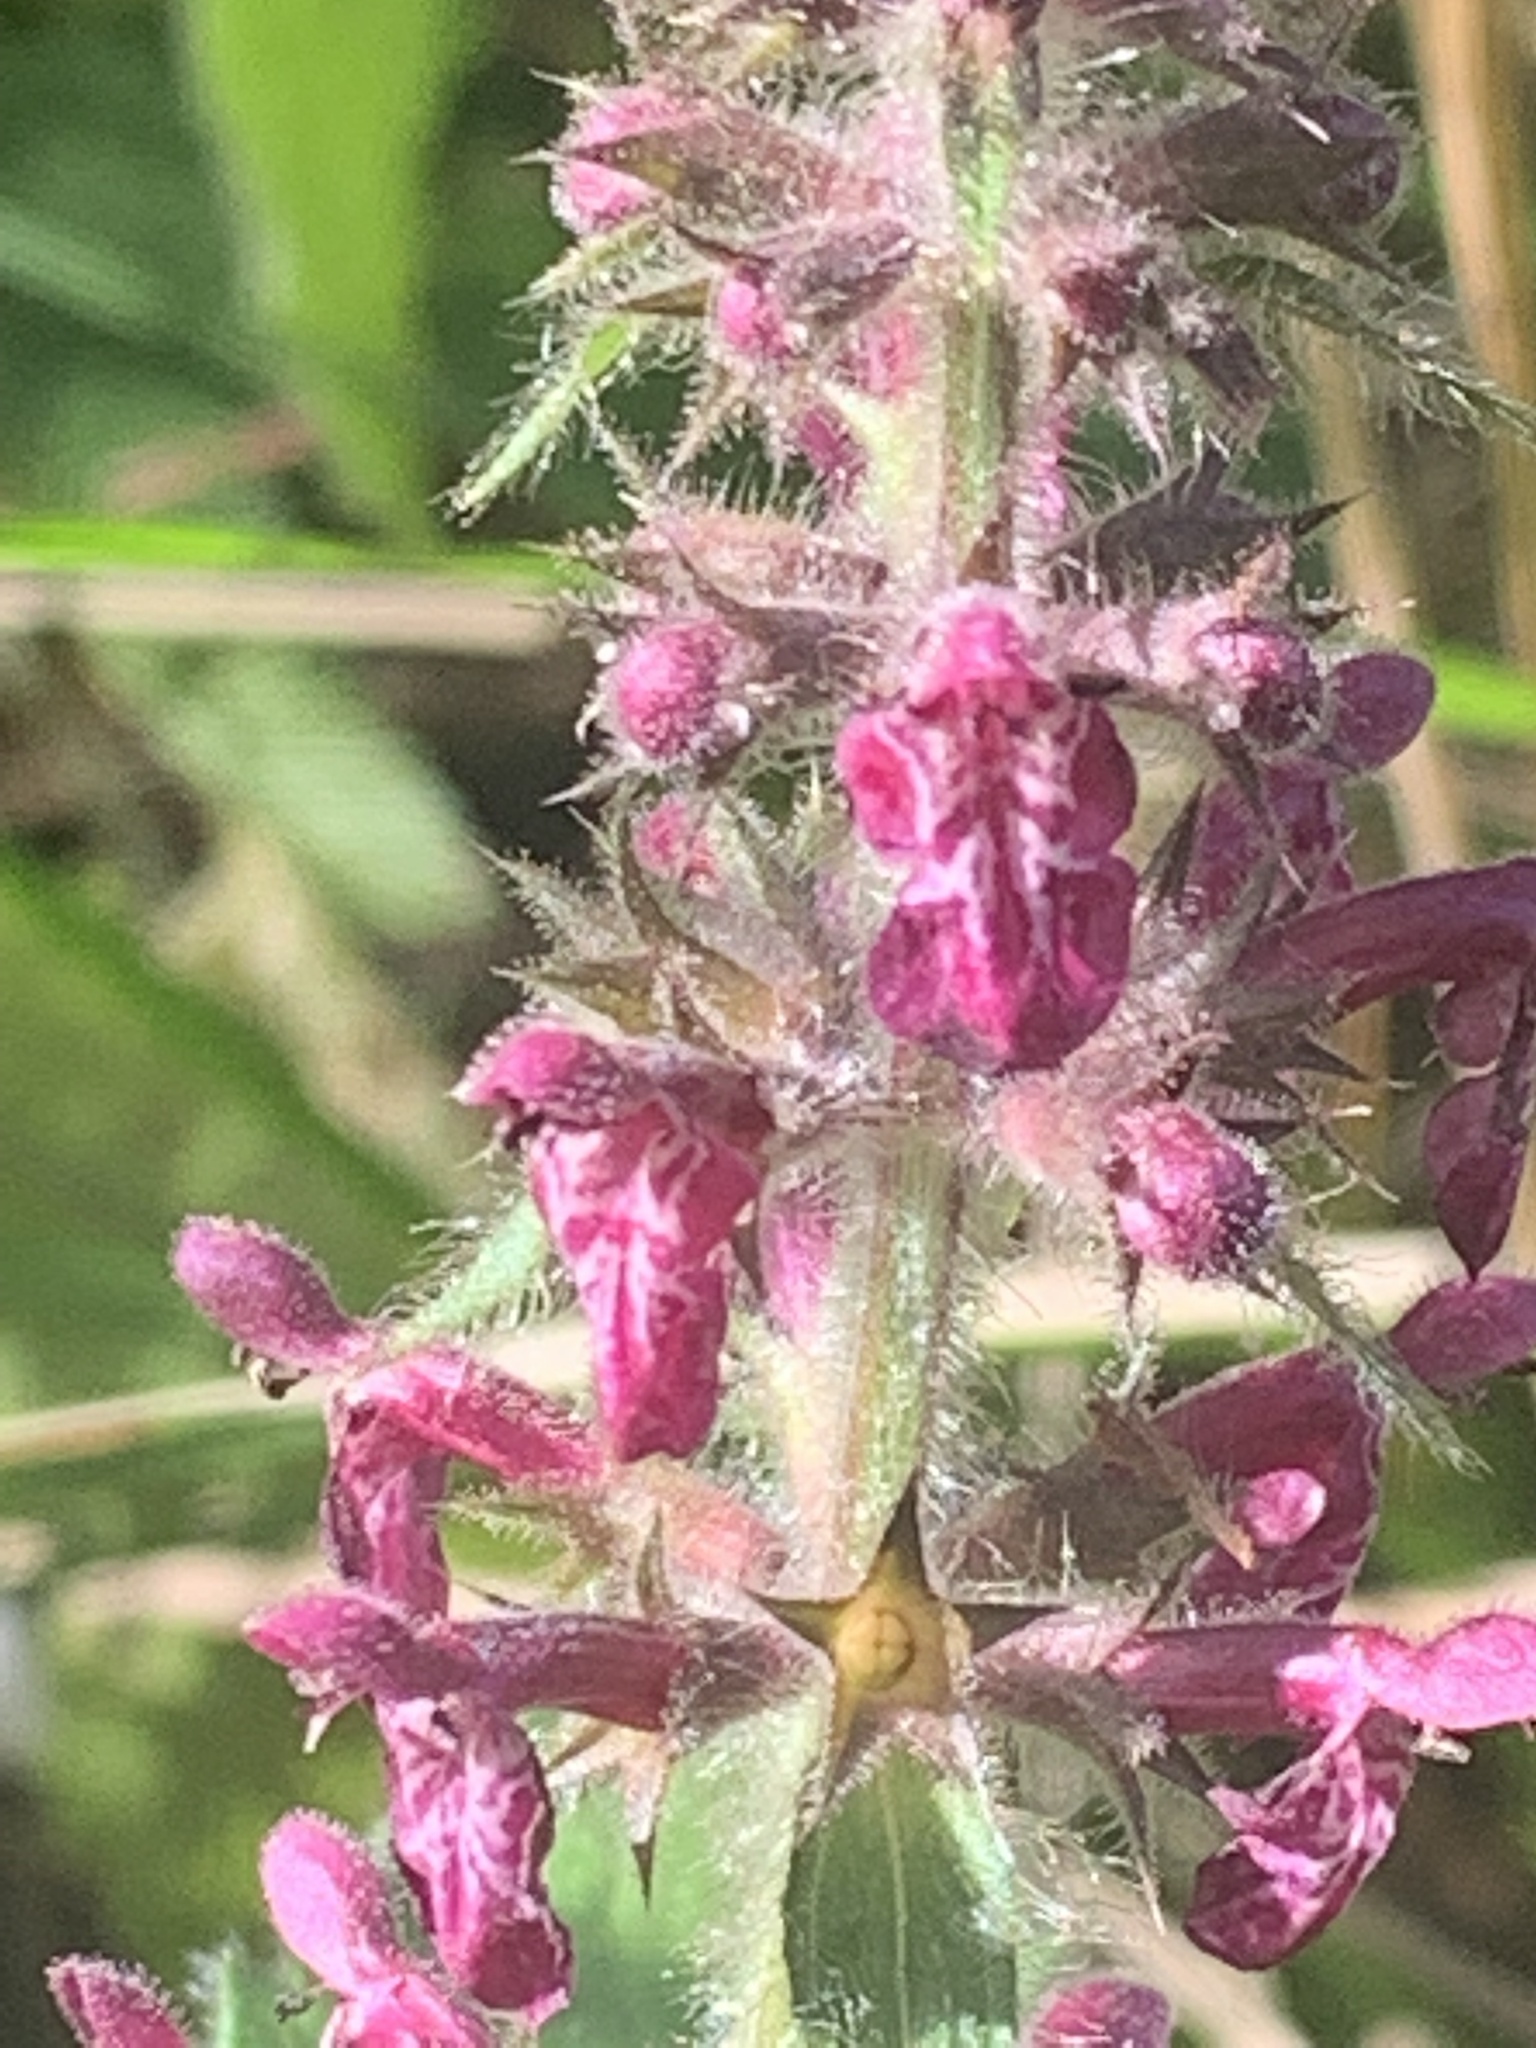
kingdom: Plantae
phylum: Tracheophyta
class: Magnoliopsida
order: Lamiales
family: Lamiaceae
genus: Stachys
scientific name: Stachys sylvatica
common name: Hedge woundwort
